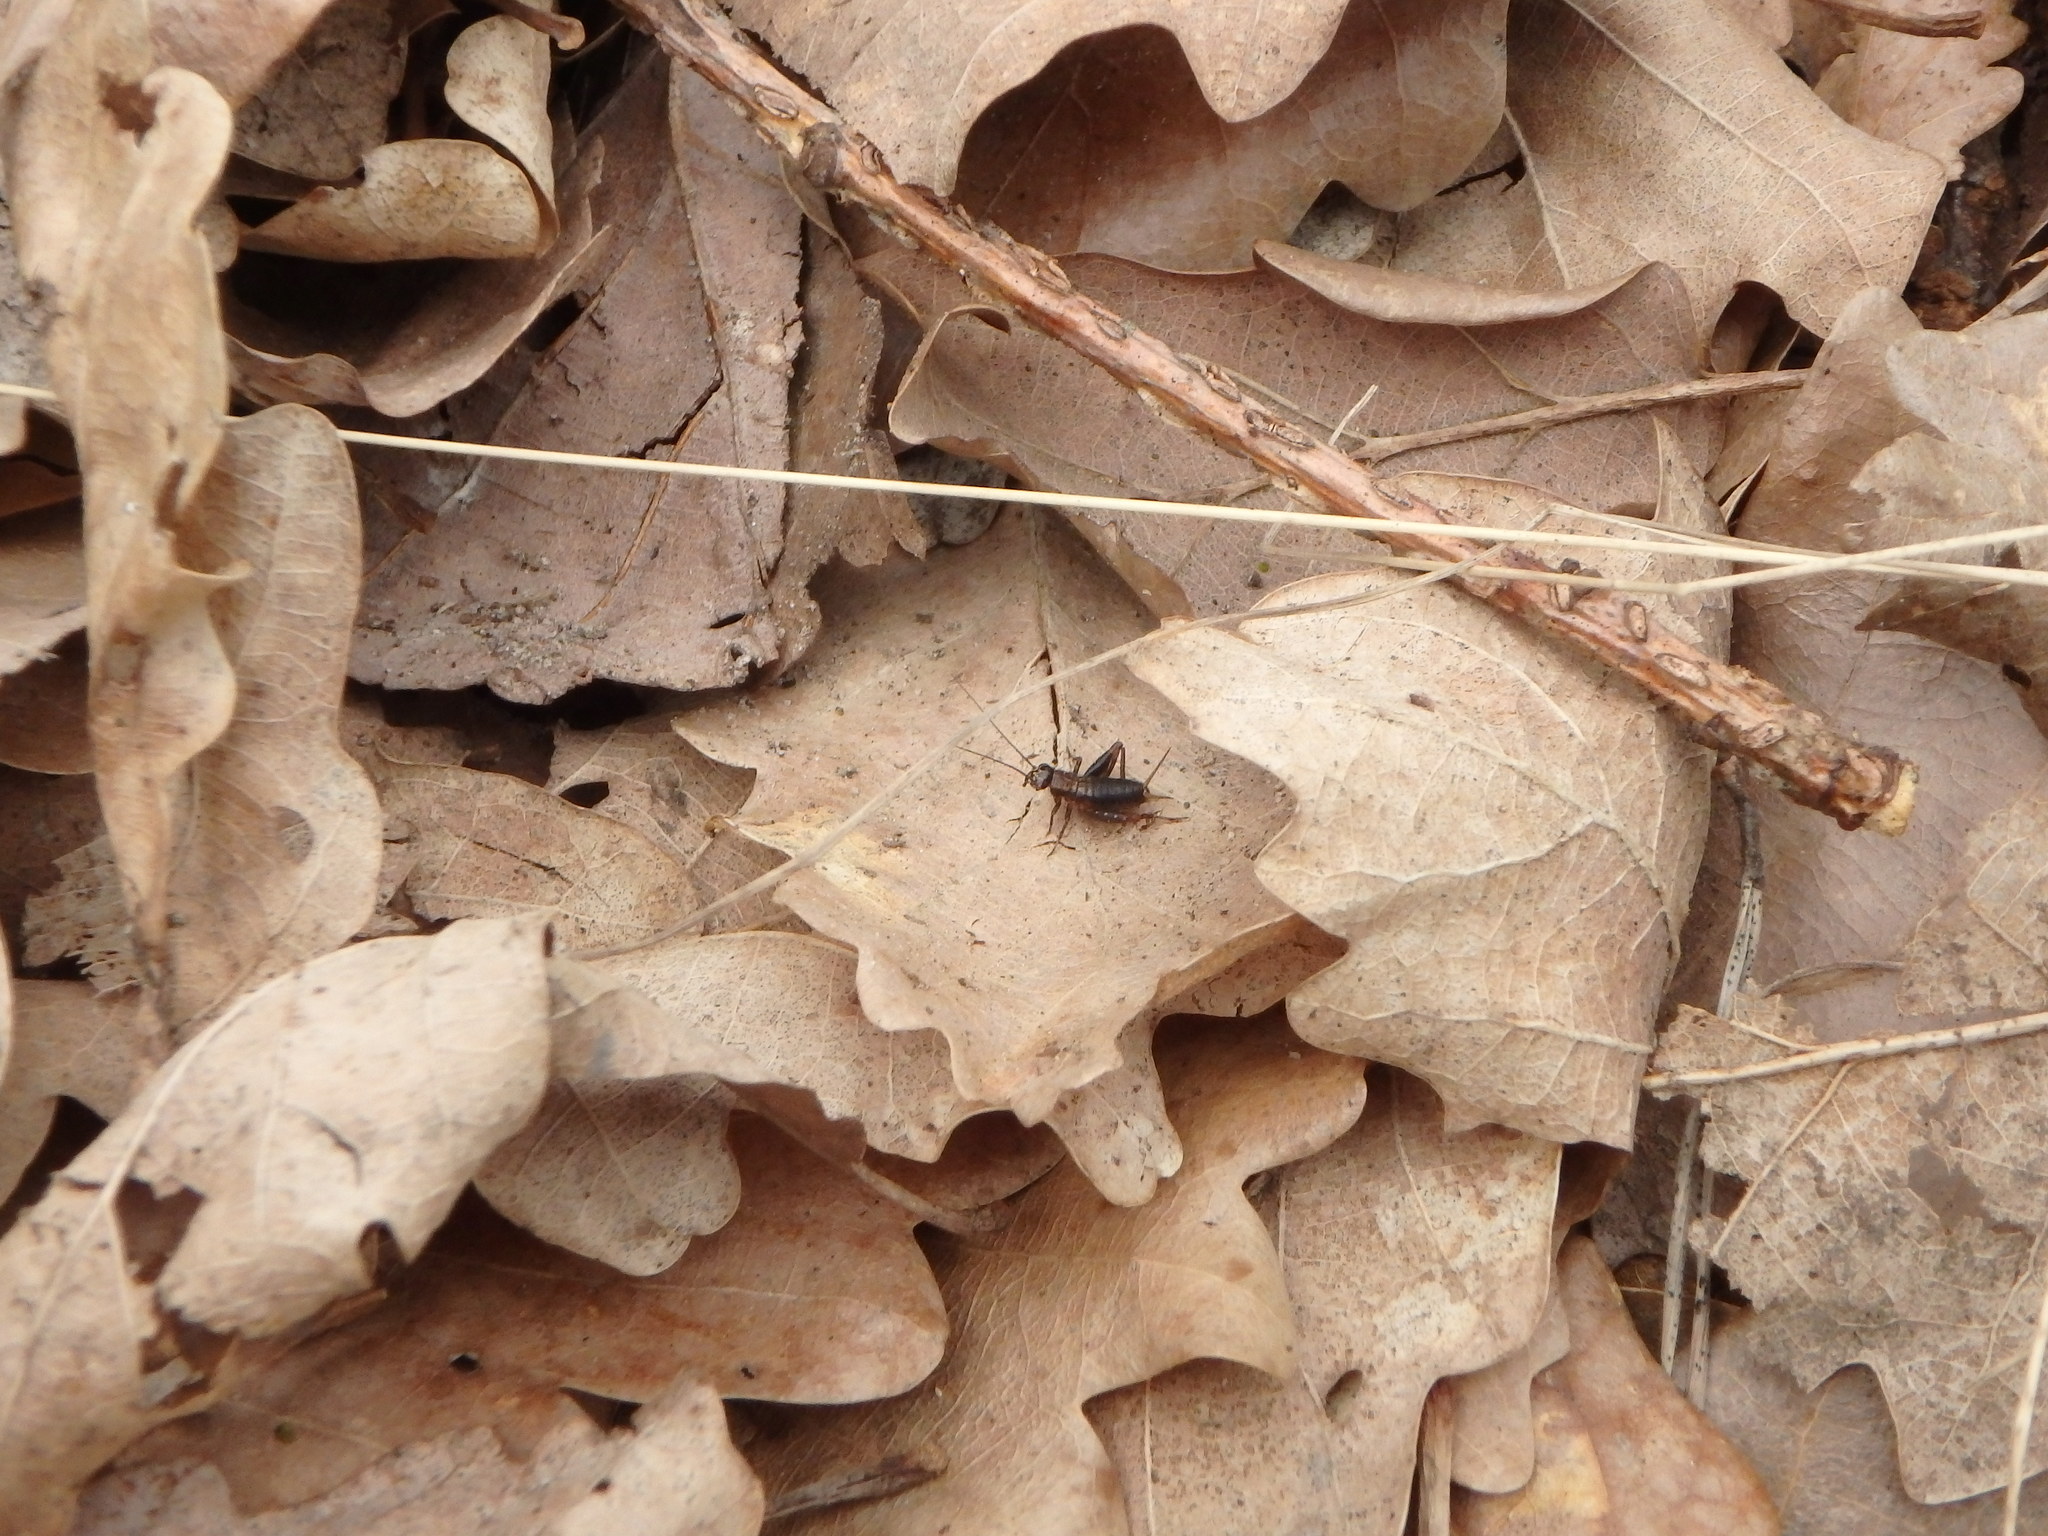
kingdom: Animalia
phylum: Arthropoda
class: Insecta
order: Orthoptera
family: Trigonidiidae
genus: Nemobius
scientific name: Nemobius sylvestris
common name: Wood-cricket
